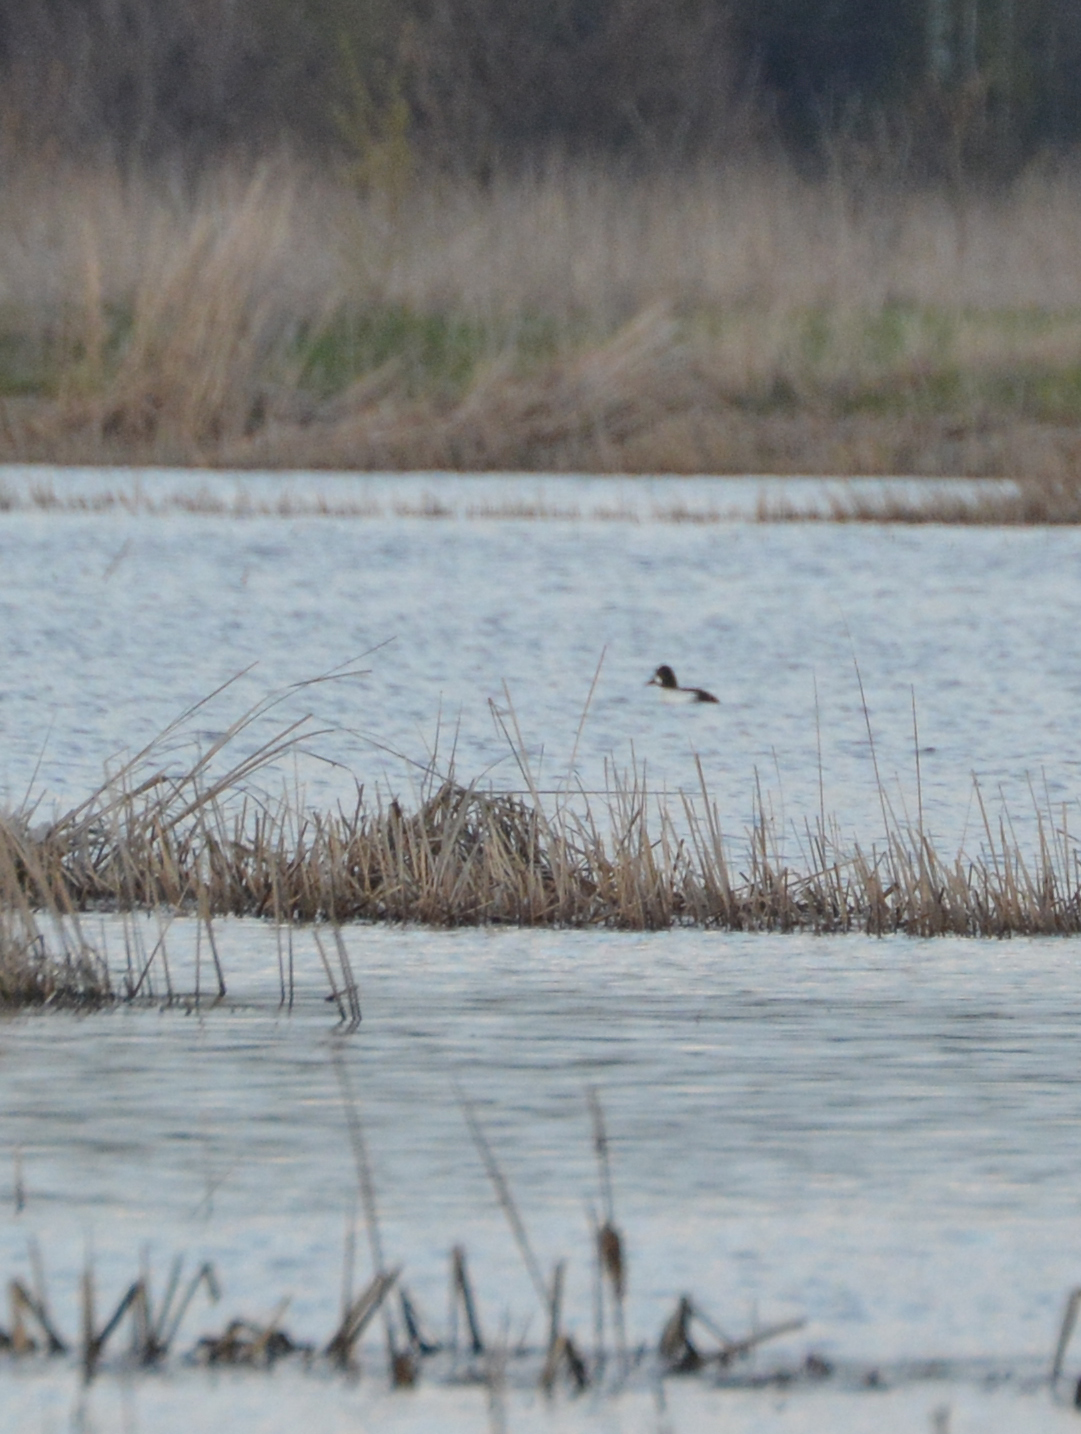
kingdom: Animalia
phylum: Chordata
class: Aves
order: Anseriformes
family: Anatidae
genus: Bucephala
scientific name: Bucephala clangula
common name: Common goldeneye
